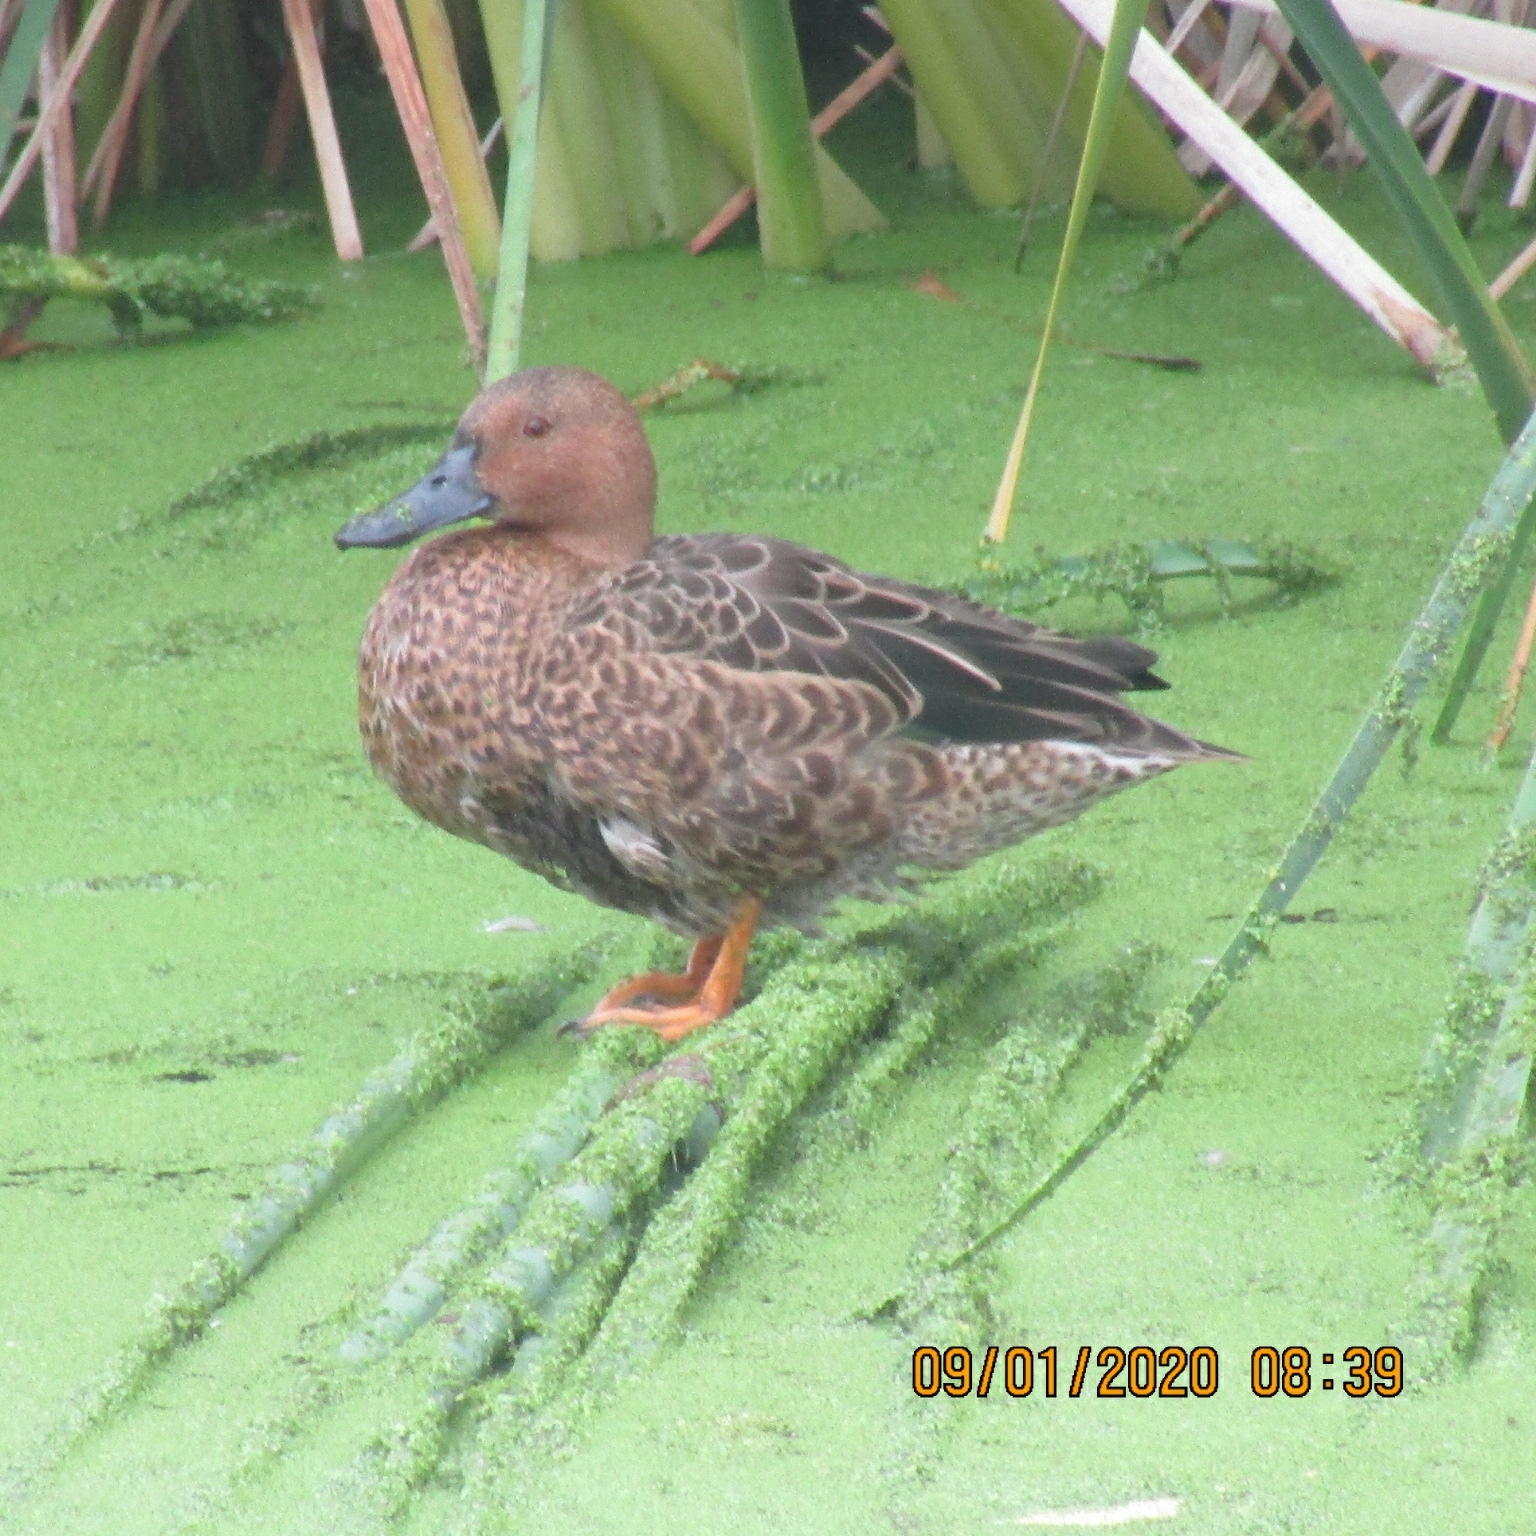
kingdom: Animalia
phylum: Chordata
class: Aves
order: Anseriformes
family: Anatidae
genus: Spatula
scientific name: Spatula cyanoptera
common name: Cinnamon teal
